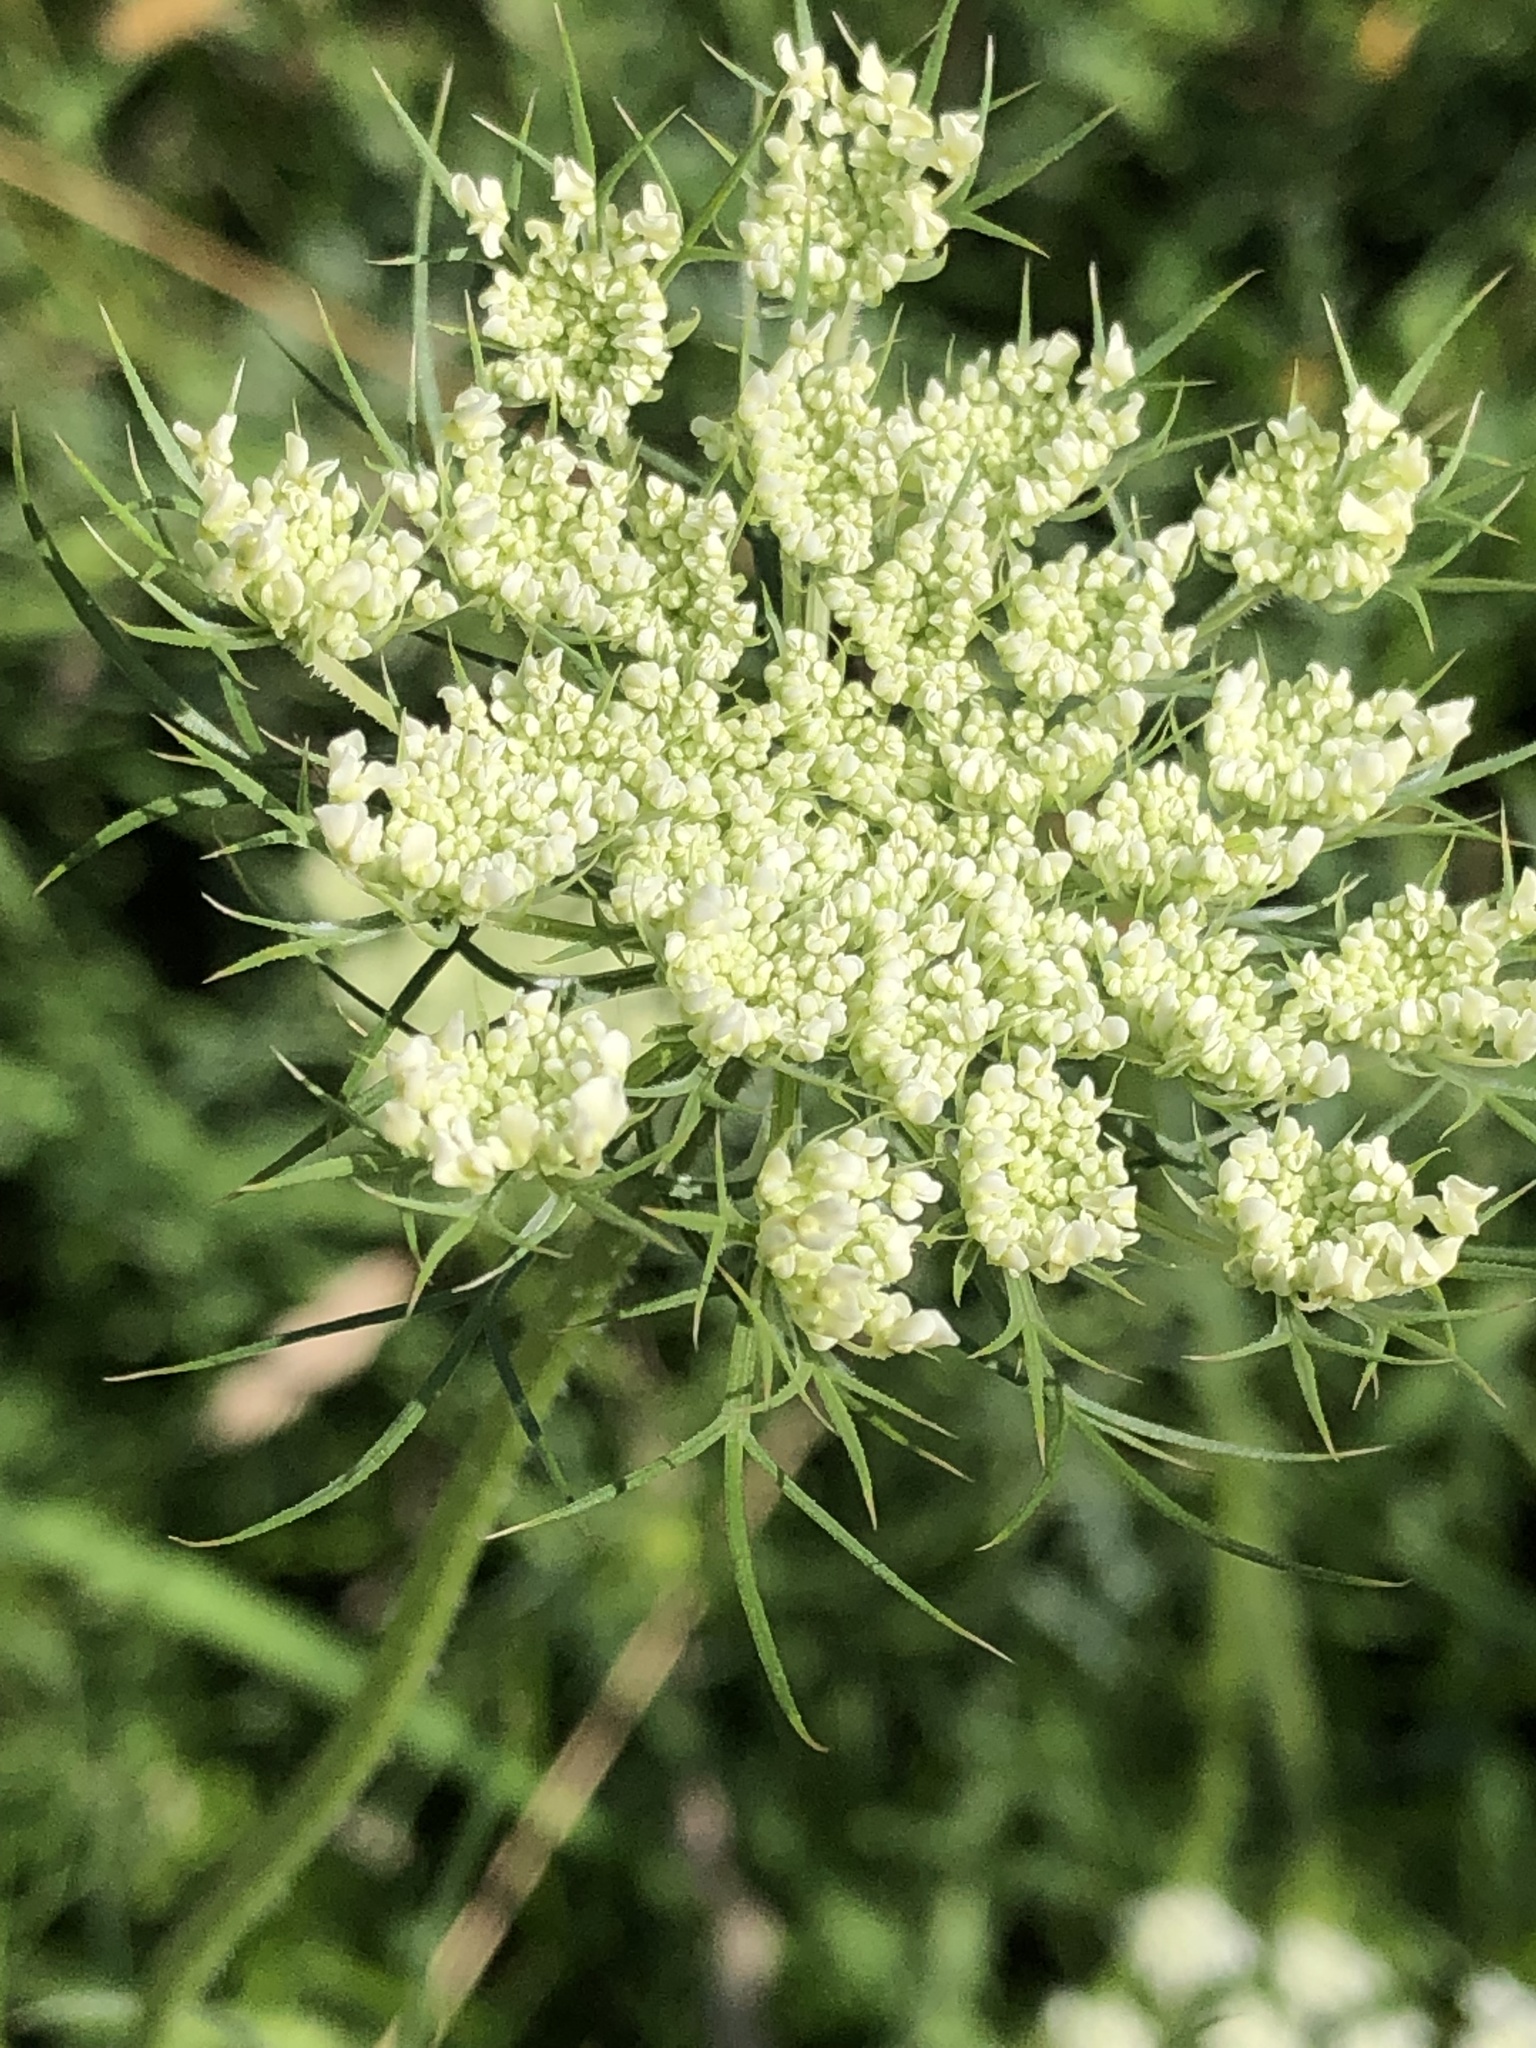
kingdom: Plantae
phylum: Tracheophyta
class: Magnoliopsida
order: Apiales
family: Apiaceae
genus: Daucus
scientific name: Daucus carota
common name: Wild carrot
